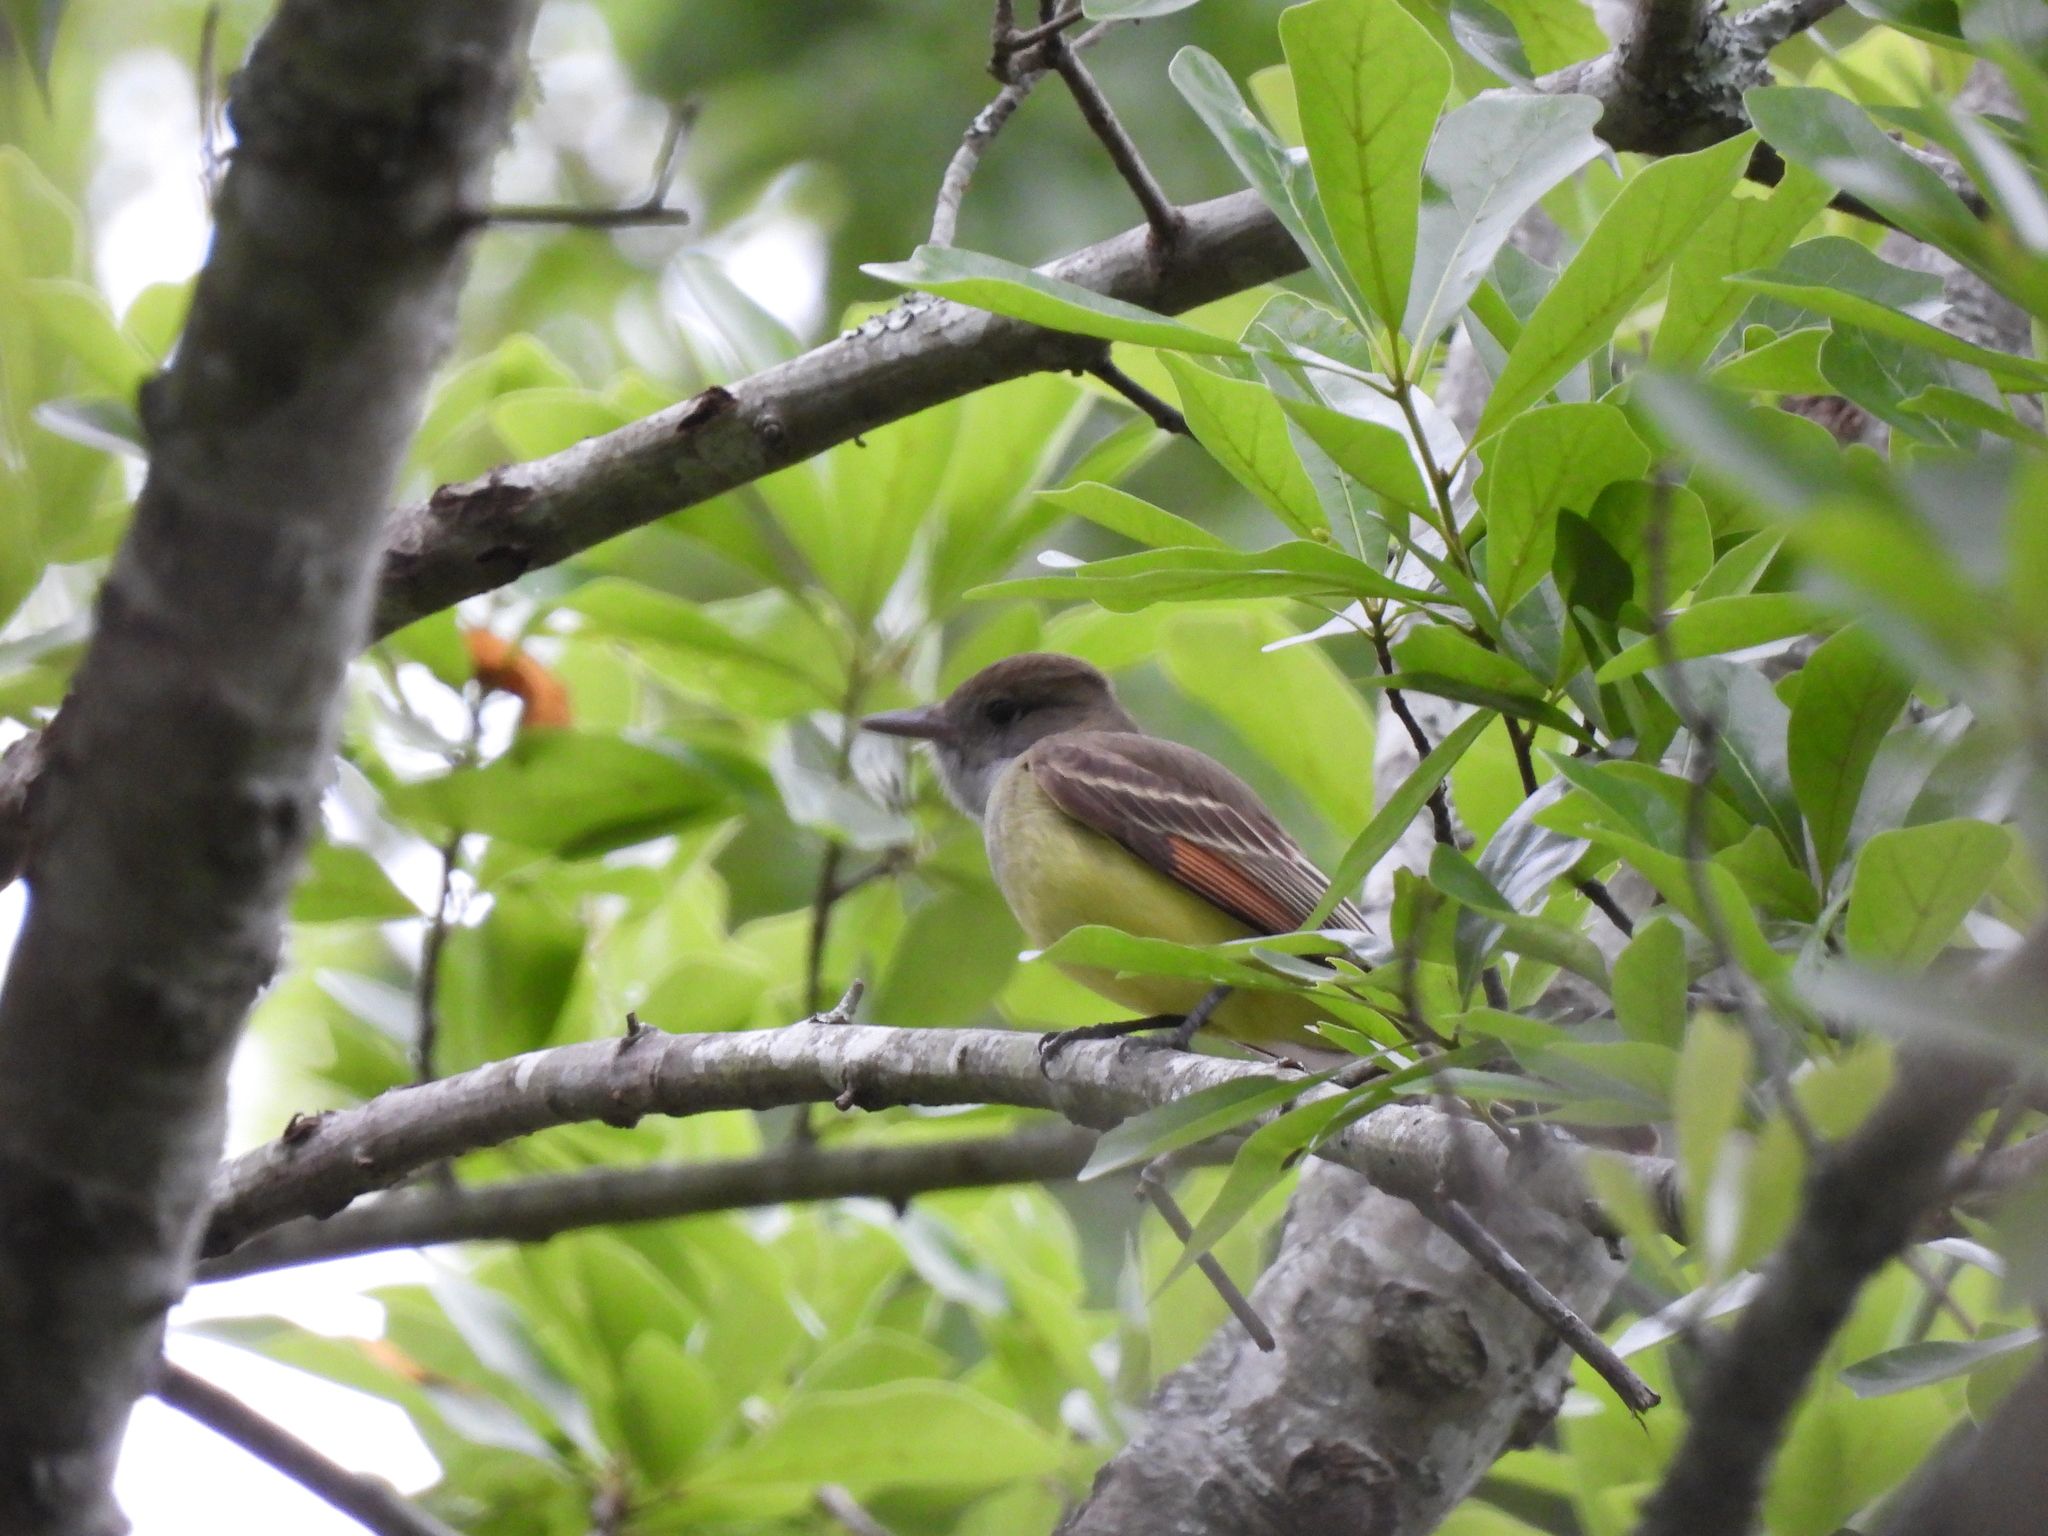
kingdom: Animalia
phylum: Chordata
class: Aves
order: Passeriformes
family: Tyrannidae
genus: Myiarchus
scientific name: Myiarchus crinitus
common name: Great crested flycatcher
